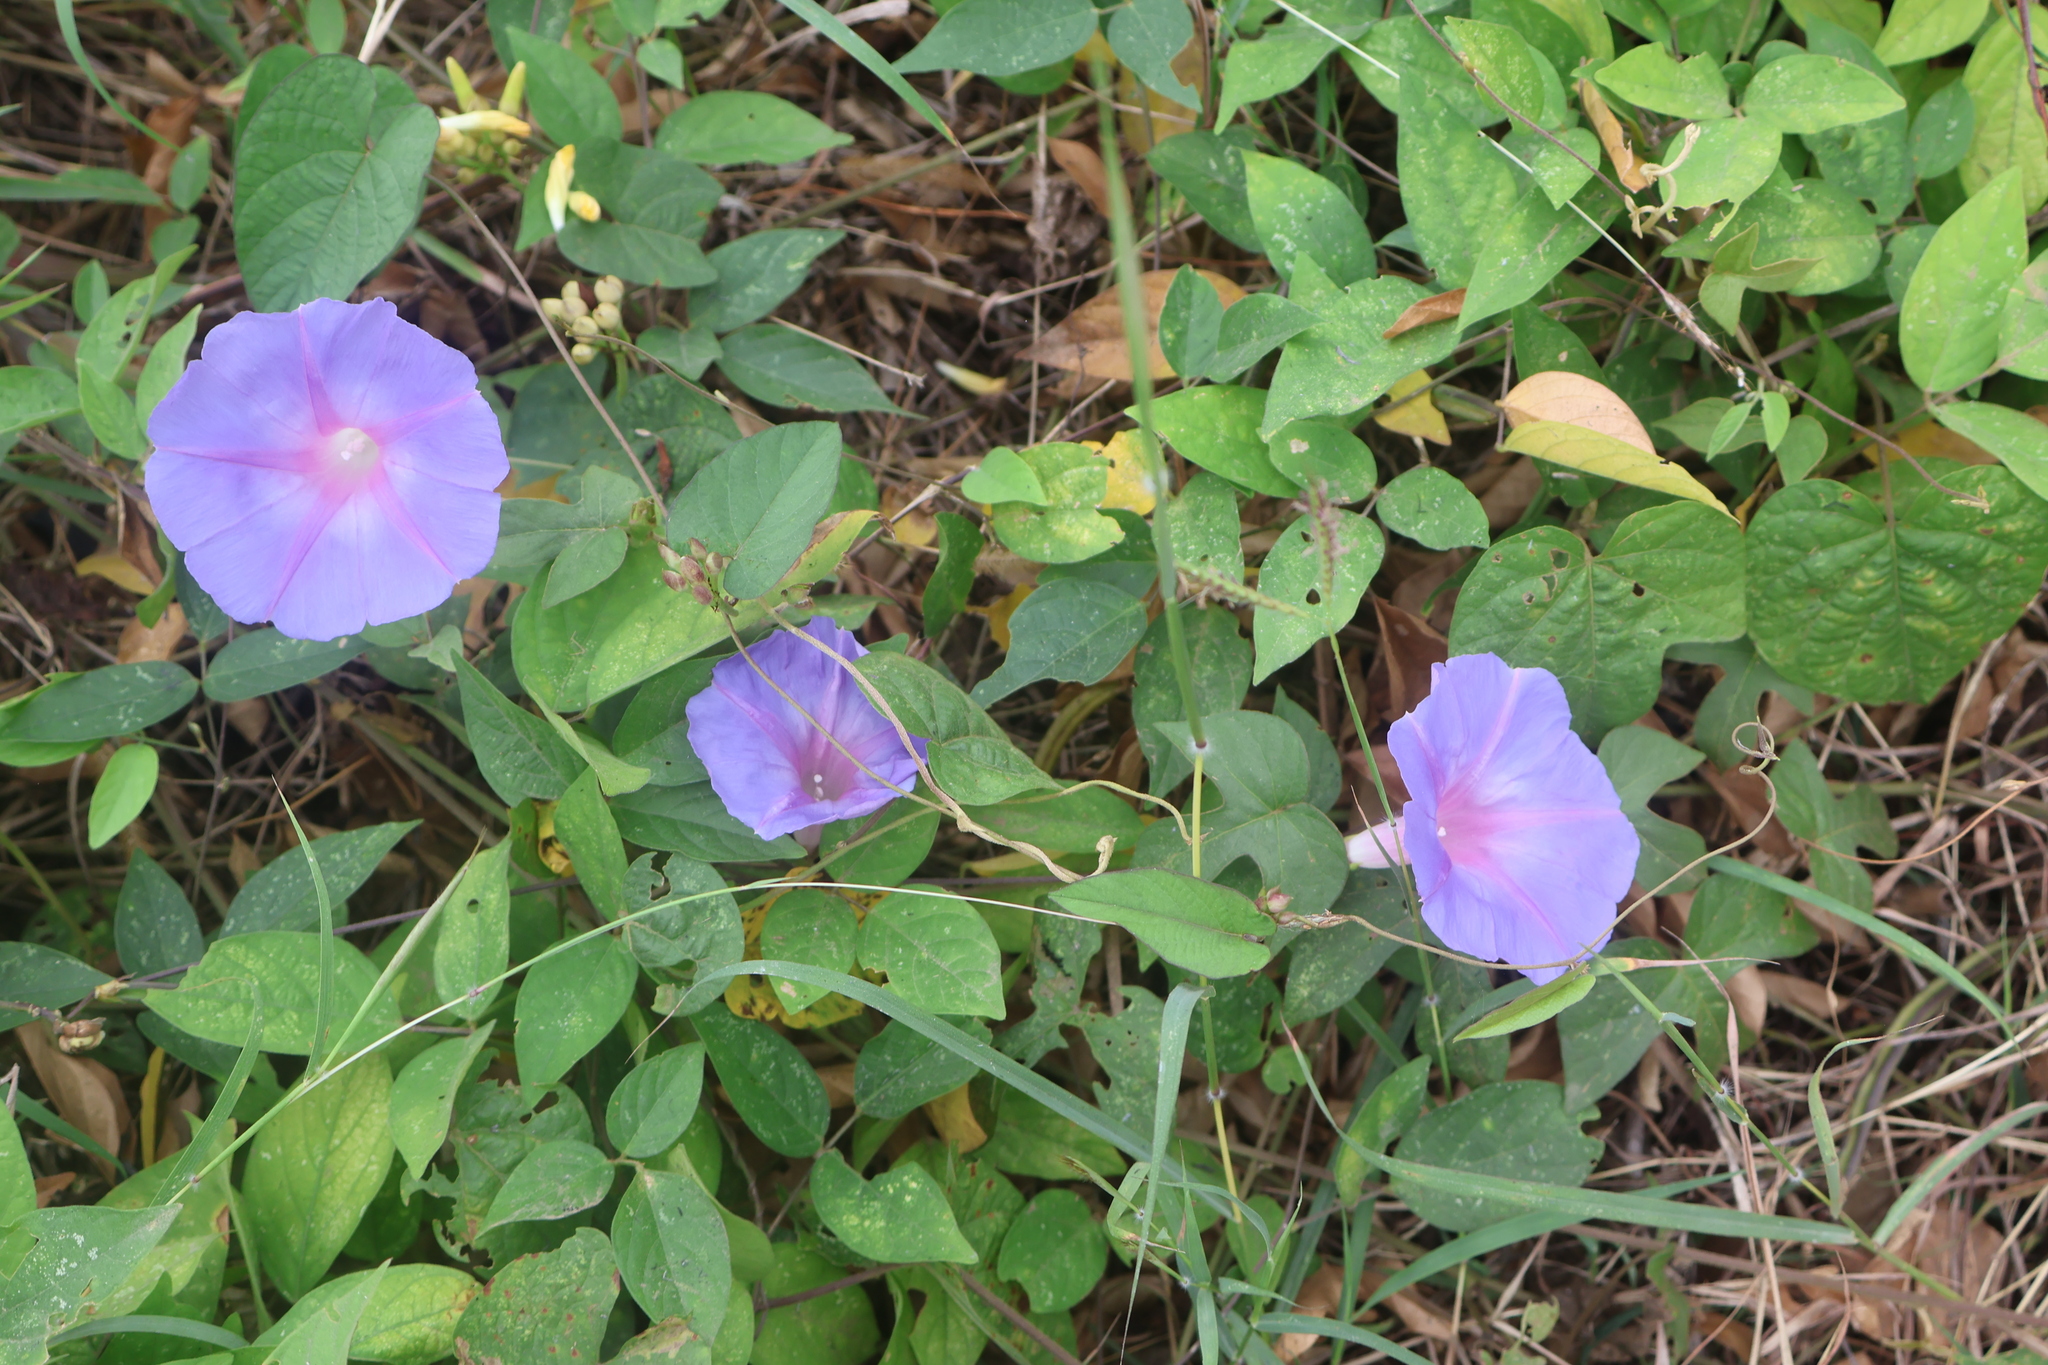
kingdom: Plantae
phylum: Tracheophyta
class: Magnoliopsida
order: Solanales
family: Convolvulaceae
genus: Ipomoea
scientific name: Ipomoea indica
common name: Blue dawnflower
